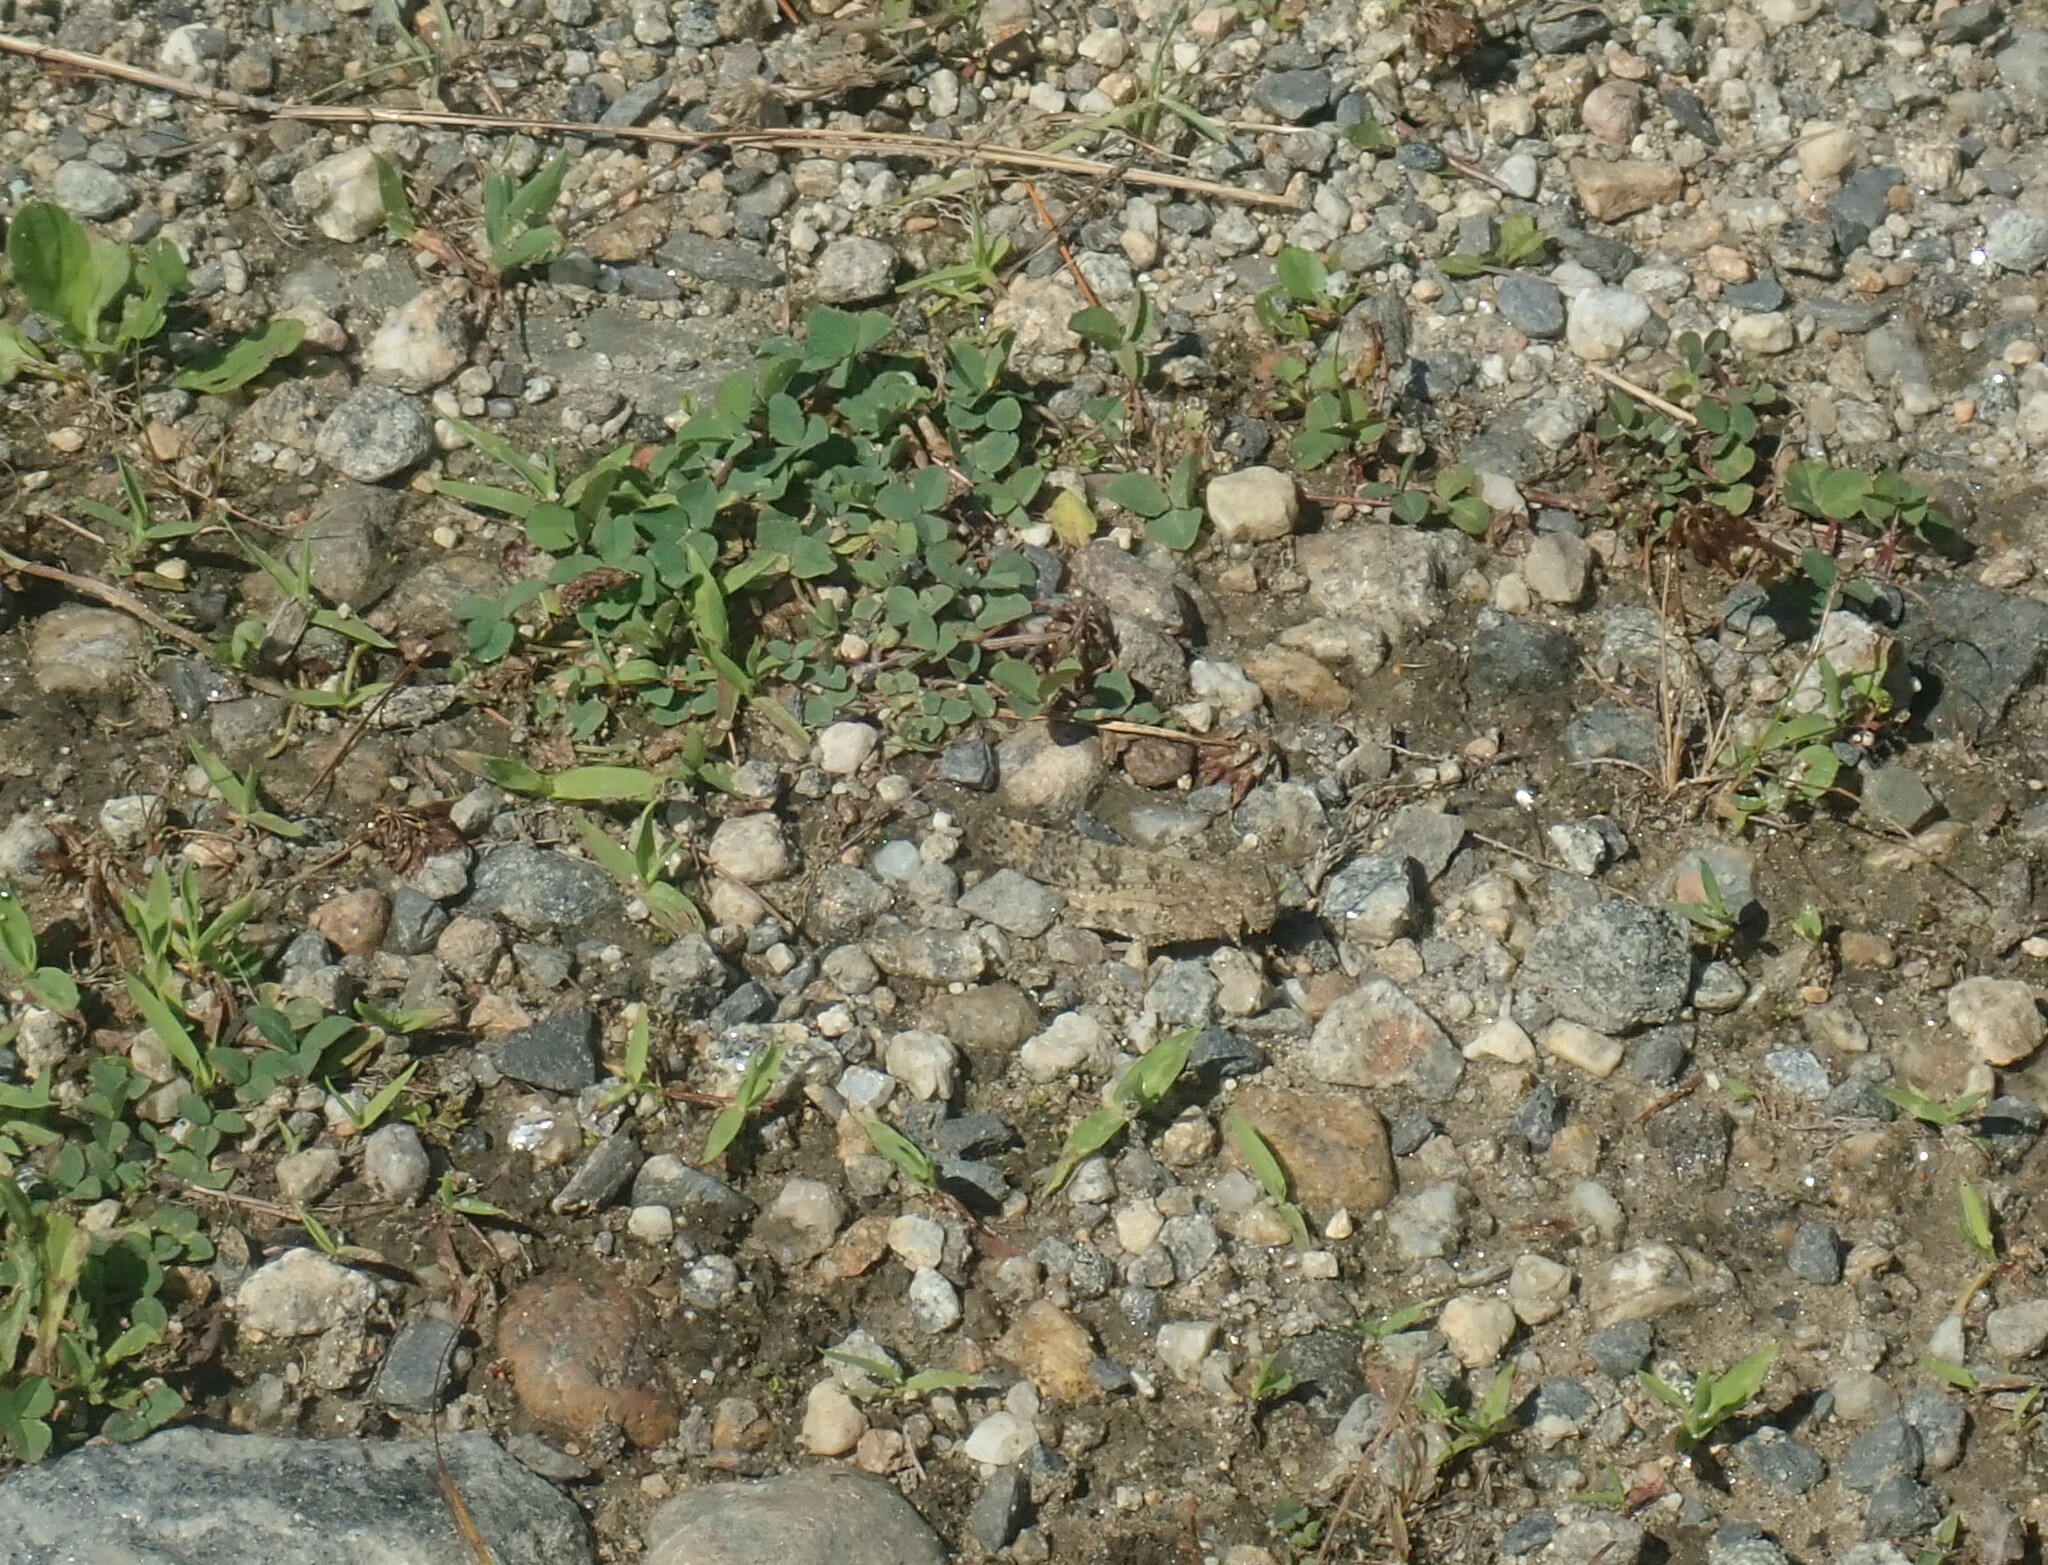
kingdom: Animalia
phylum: Arthropoda
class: Insecta
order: Orthoptera
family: Acrididae
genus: Dissosteira
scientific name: Dissosteira carolina
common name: Carolina grasshopper
